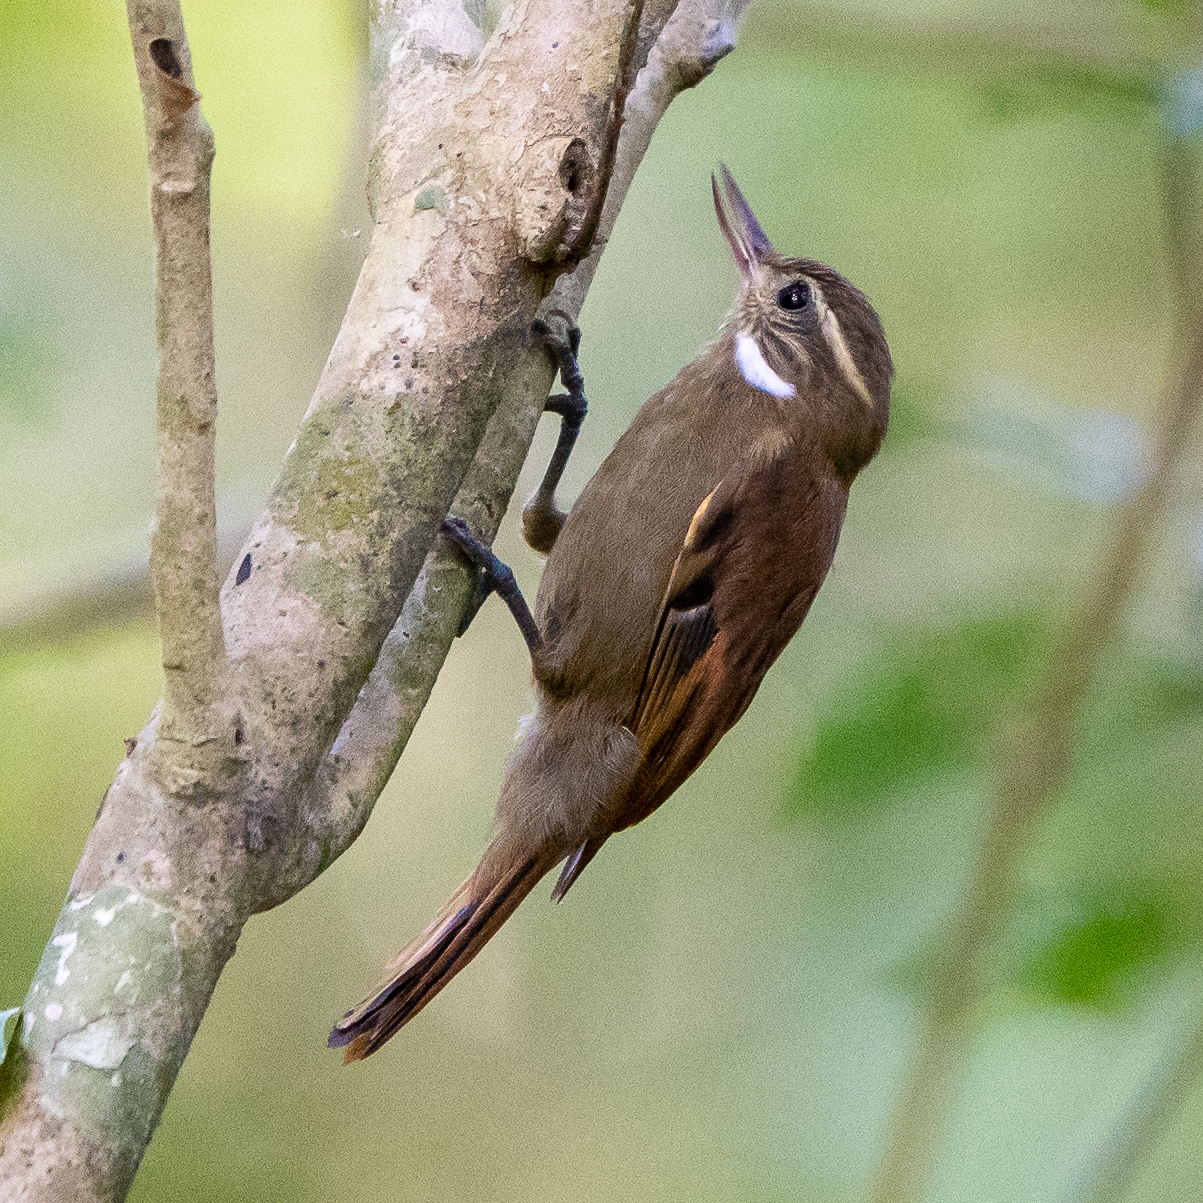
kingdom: Animalia
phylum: Chordata
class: Aves
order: Passeriformes
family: Furnariidae
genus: Xenops
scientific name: Xenops minutus
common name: Plain xenops
